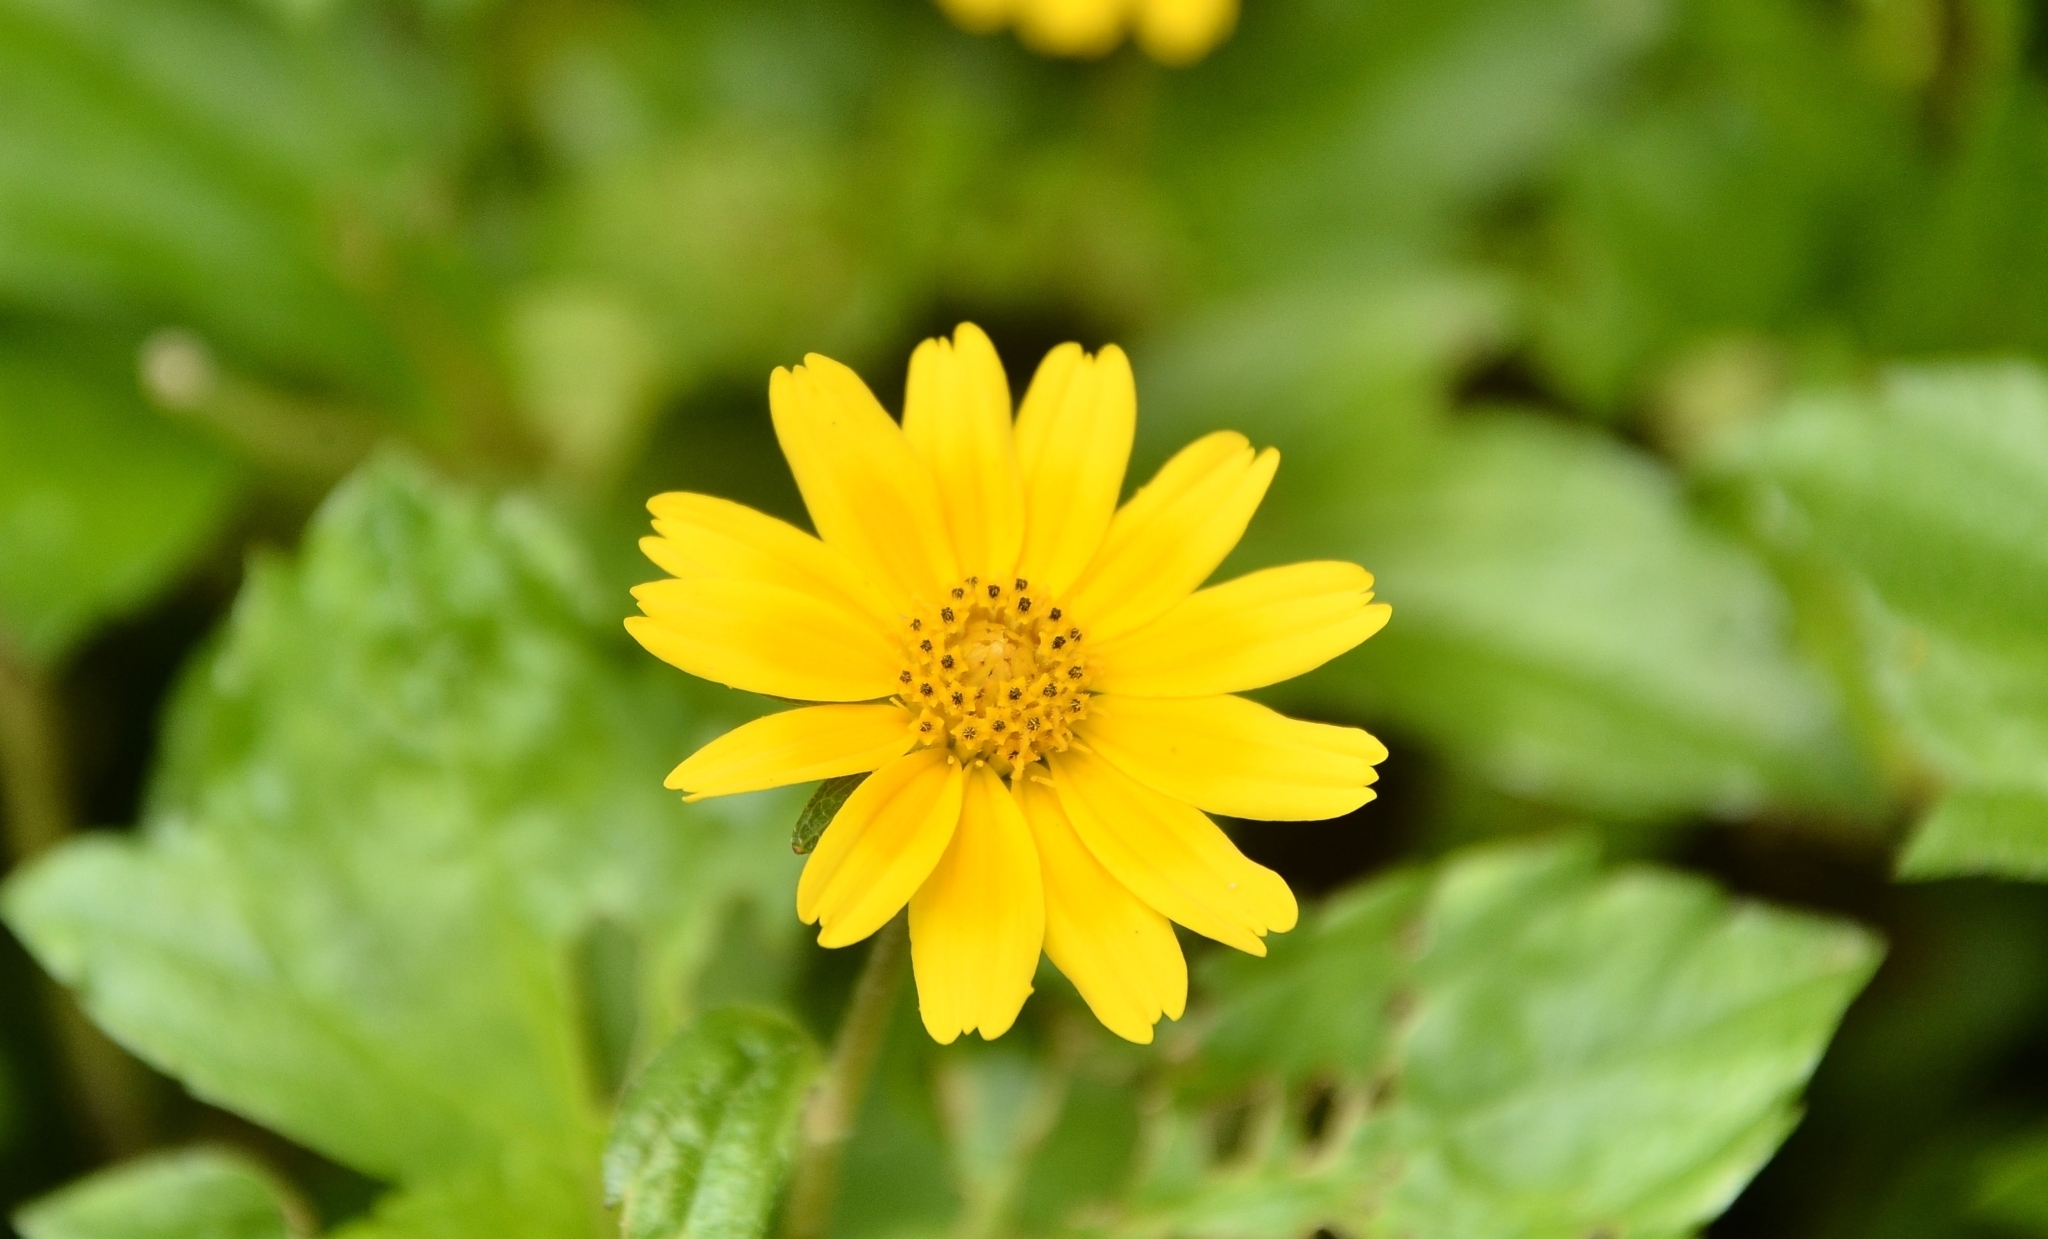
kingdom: Plantae
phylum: Tracheophyta
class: Magnoliopsida
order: Asterales
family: Asteraceae
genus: Sphagneticola
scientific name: Sphagneticola trilobata
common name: Bay biscayne creeping-oxeye
